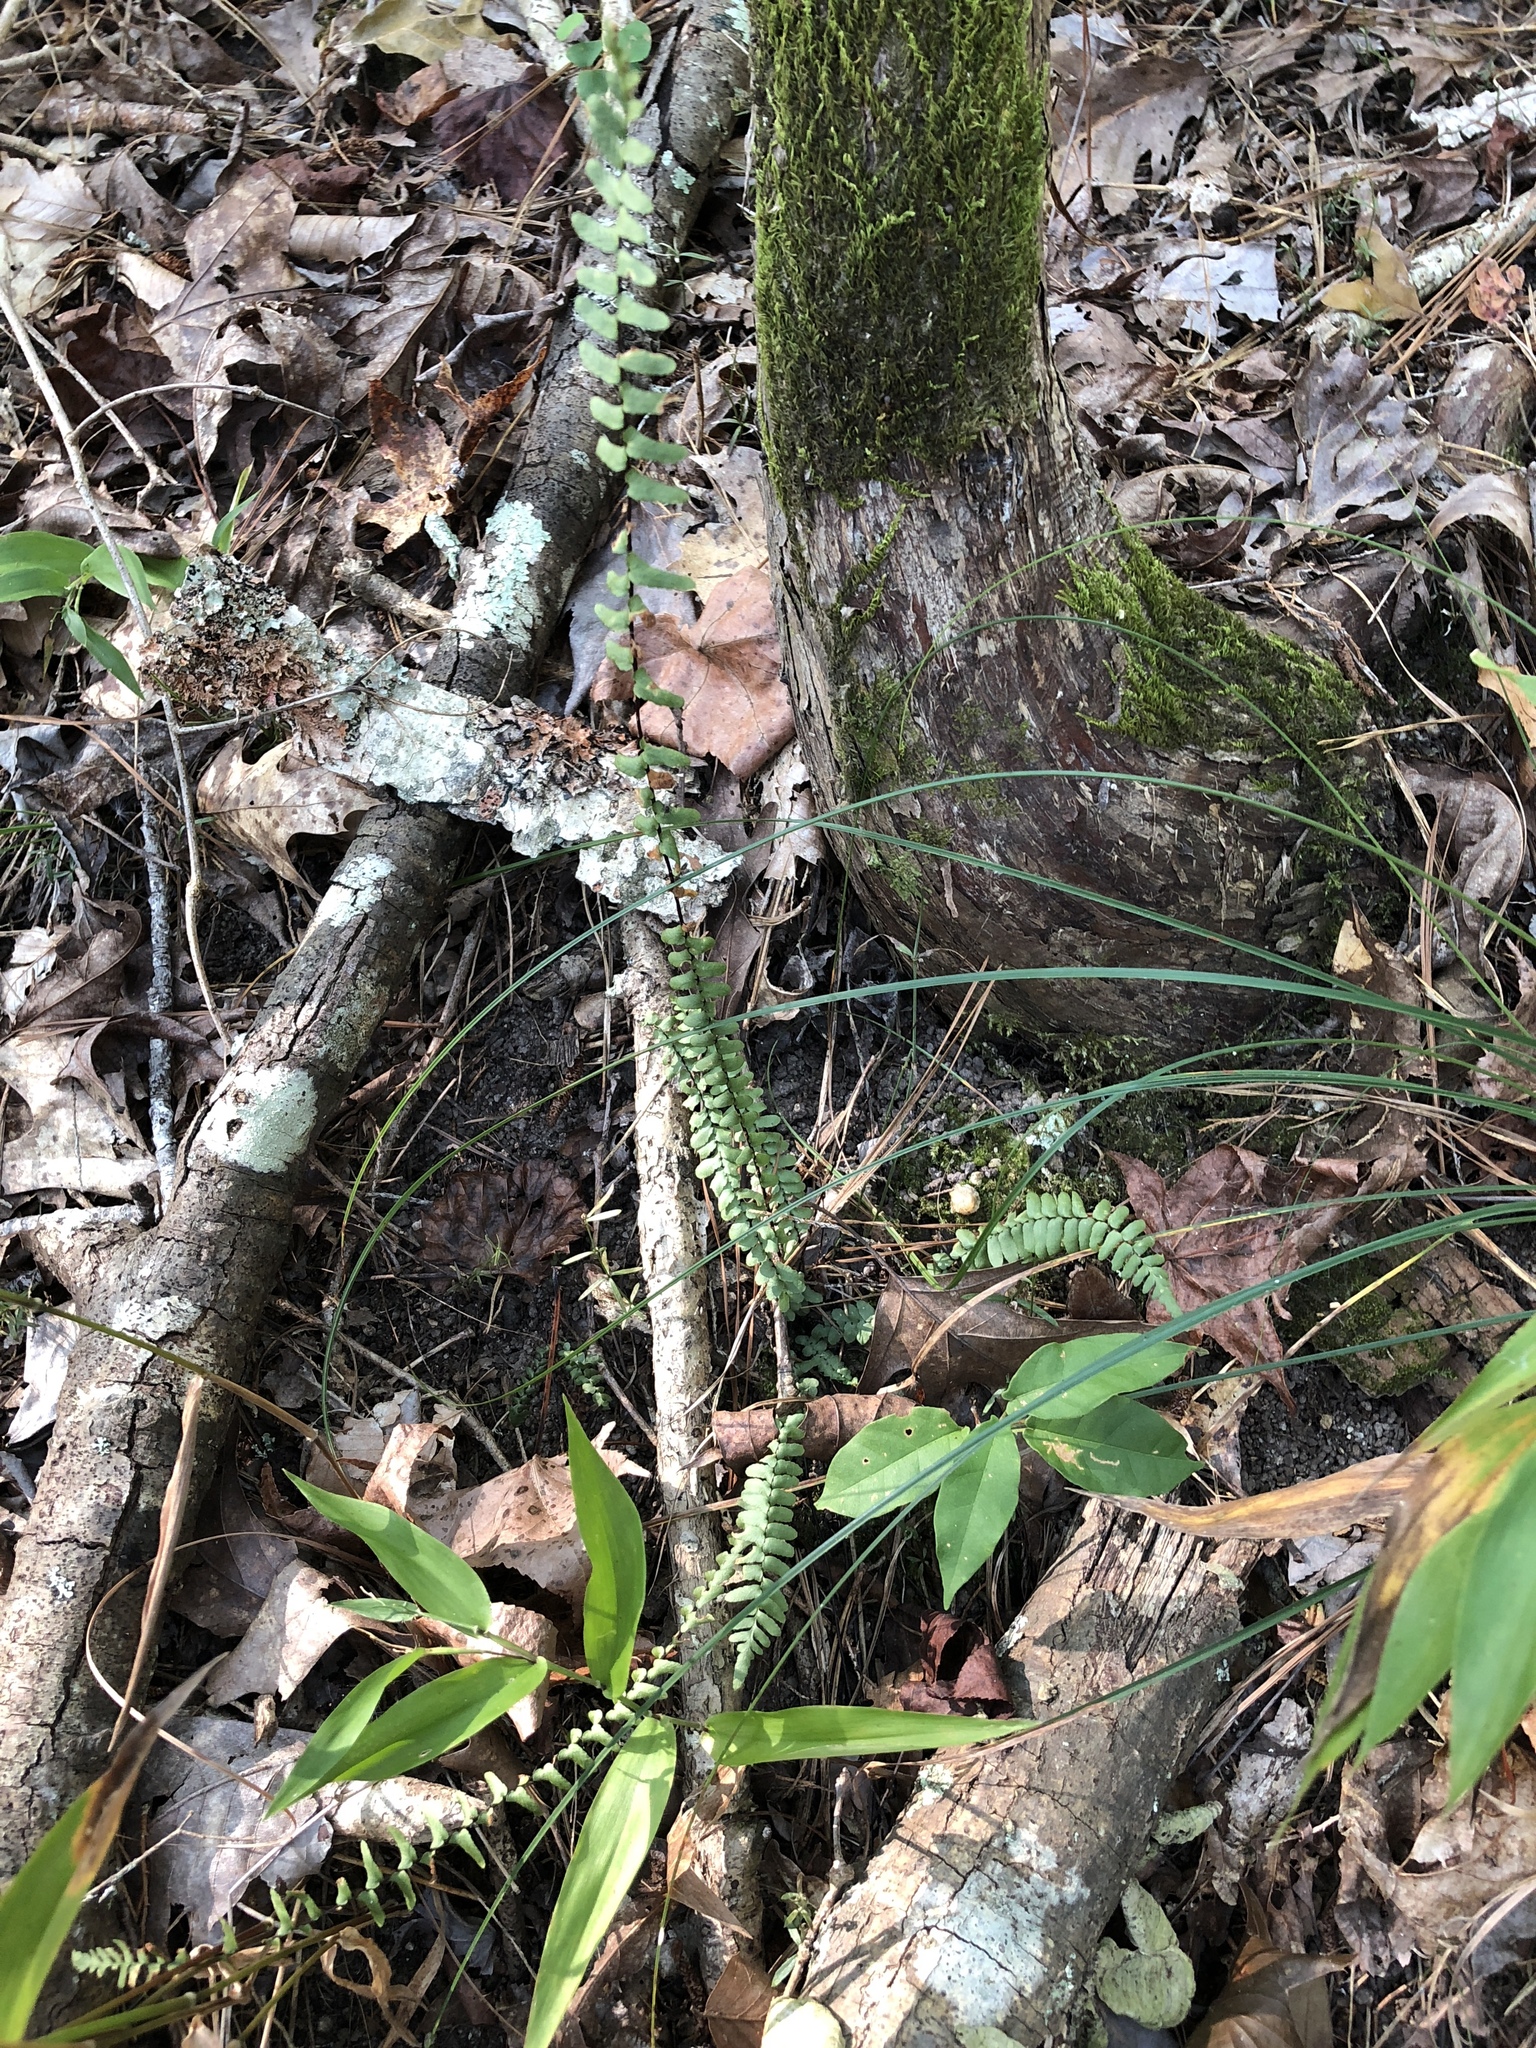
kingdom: Plantae
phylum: Tracheophyta
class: Polypodiopsida
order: Polypodiales
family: Aspleniaceae
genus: Asplenium
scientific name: Asplenium platyneuron
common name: Ebony spleenwort
